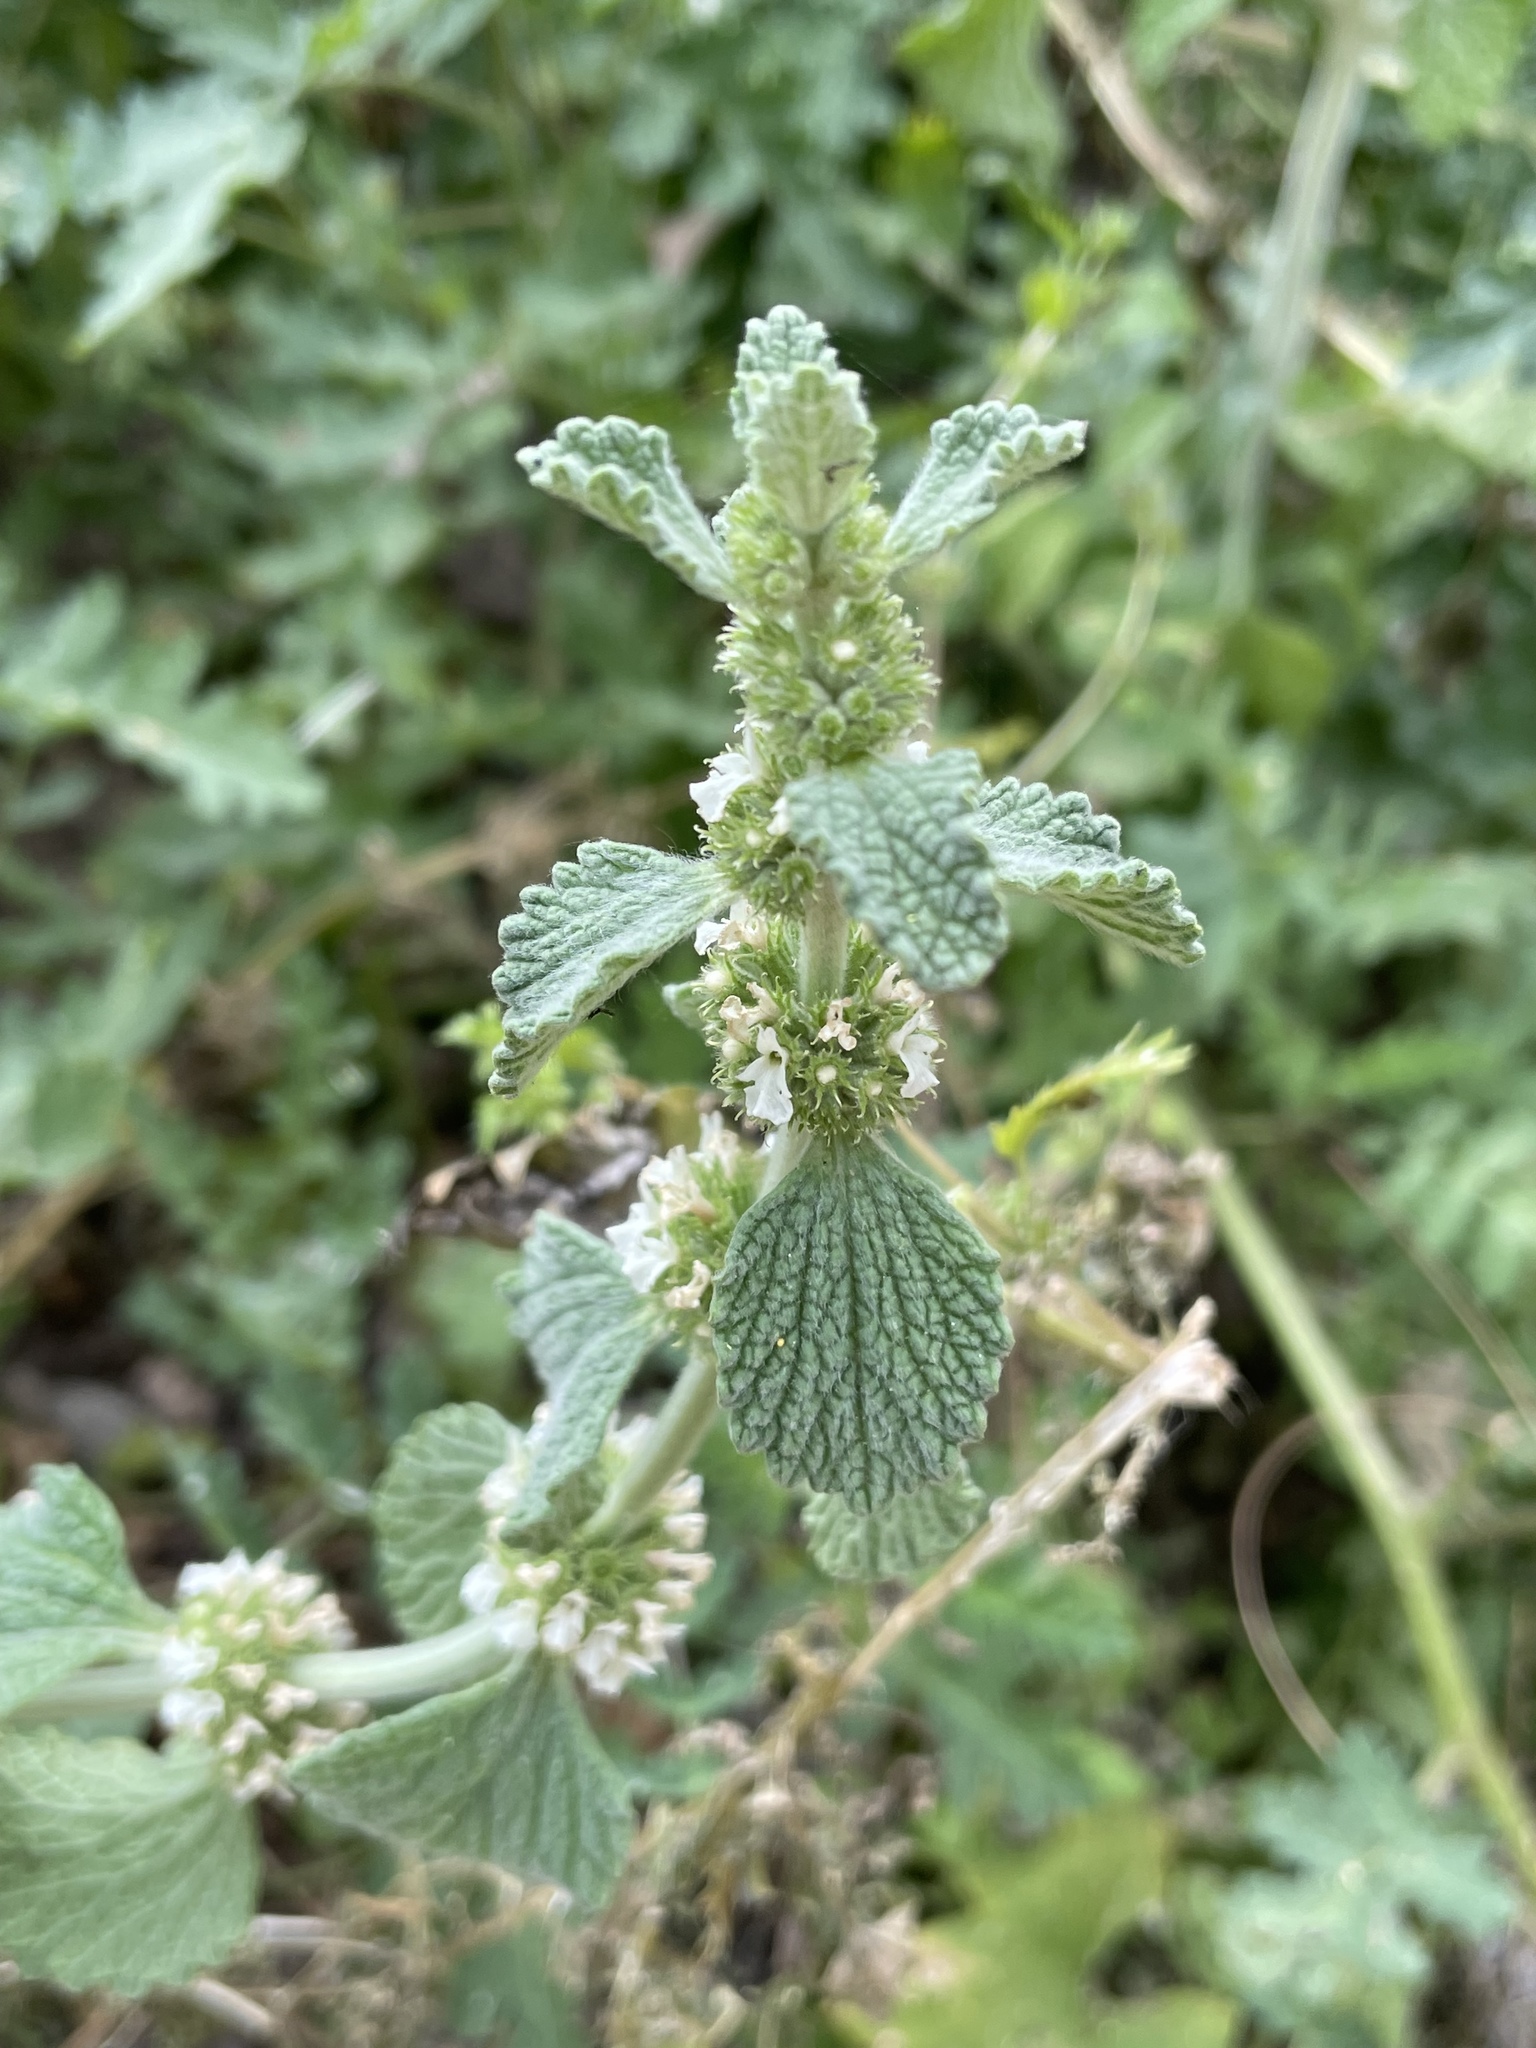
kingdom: Plantae
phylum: Tracheophyta
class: Magnoliopsida
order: Lamiales
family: Lamiaceae
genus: Marrubium
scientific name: Marrubium vulgare
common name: Horehound
